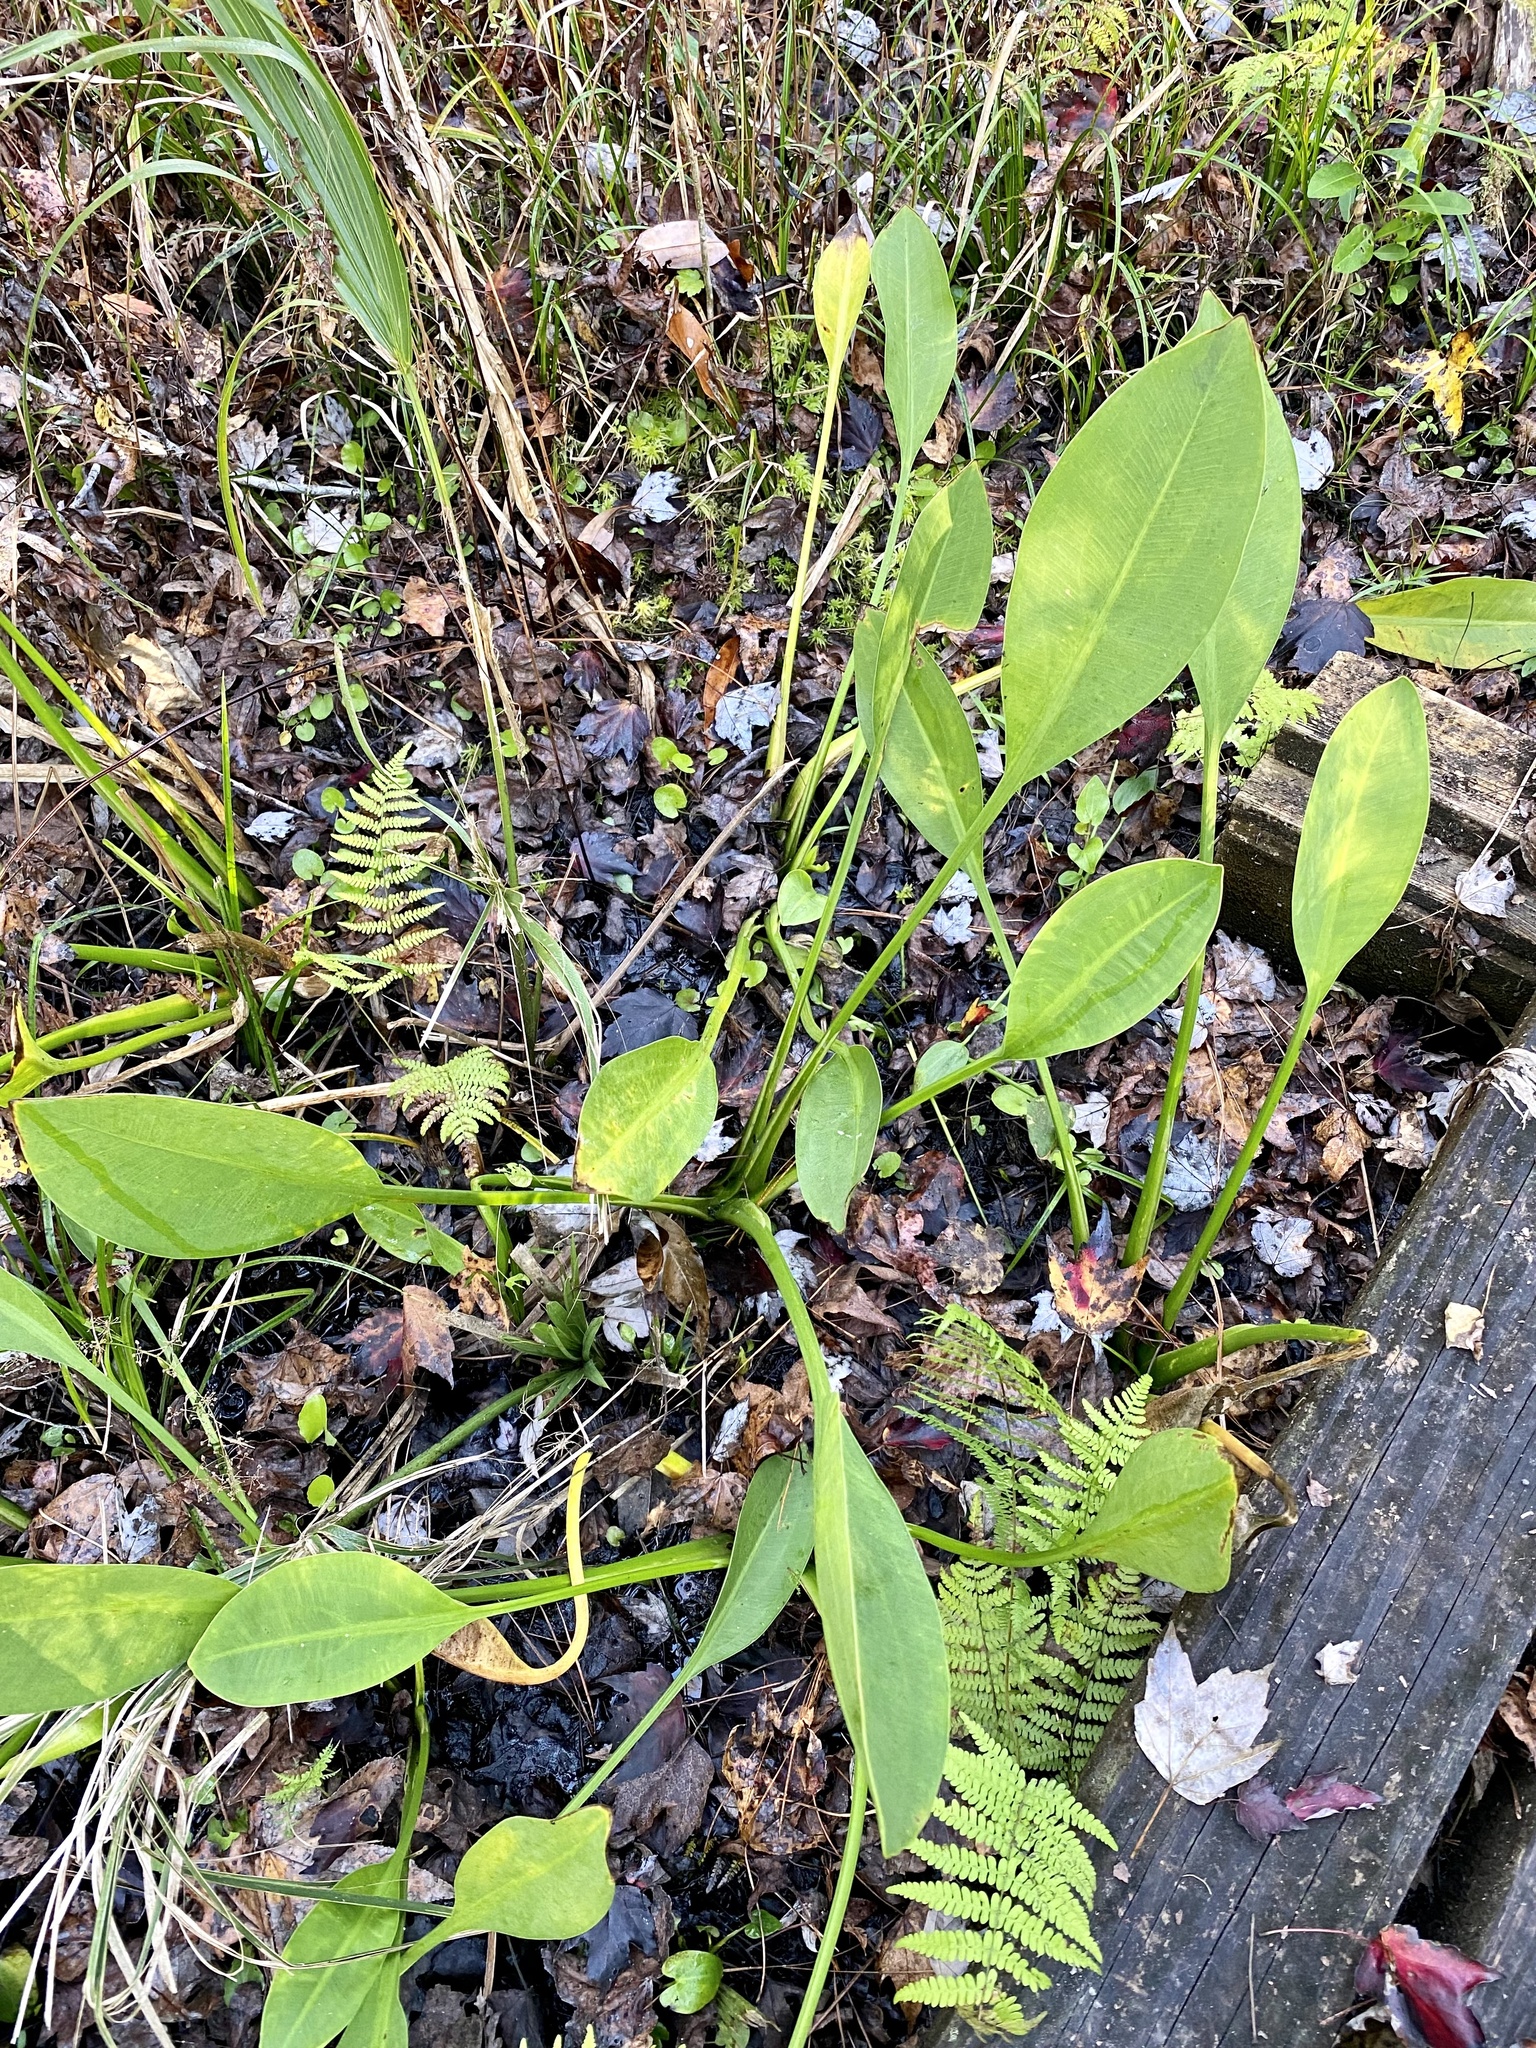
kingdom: Plantae
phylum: Tracheophyta
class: Liliopsida
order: Alismatales
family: Alismataceae
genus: Sagittaria
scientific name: Sagittaria lancifolia
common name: Lance-leaf arrowhead
